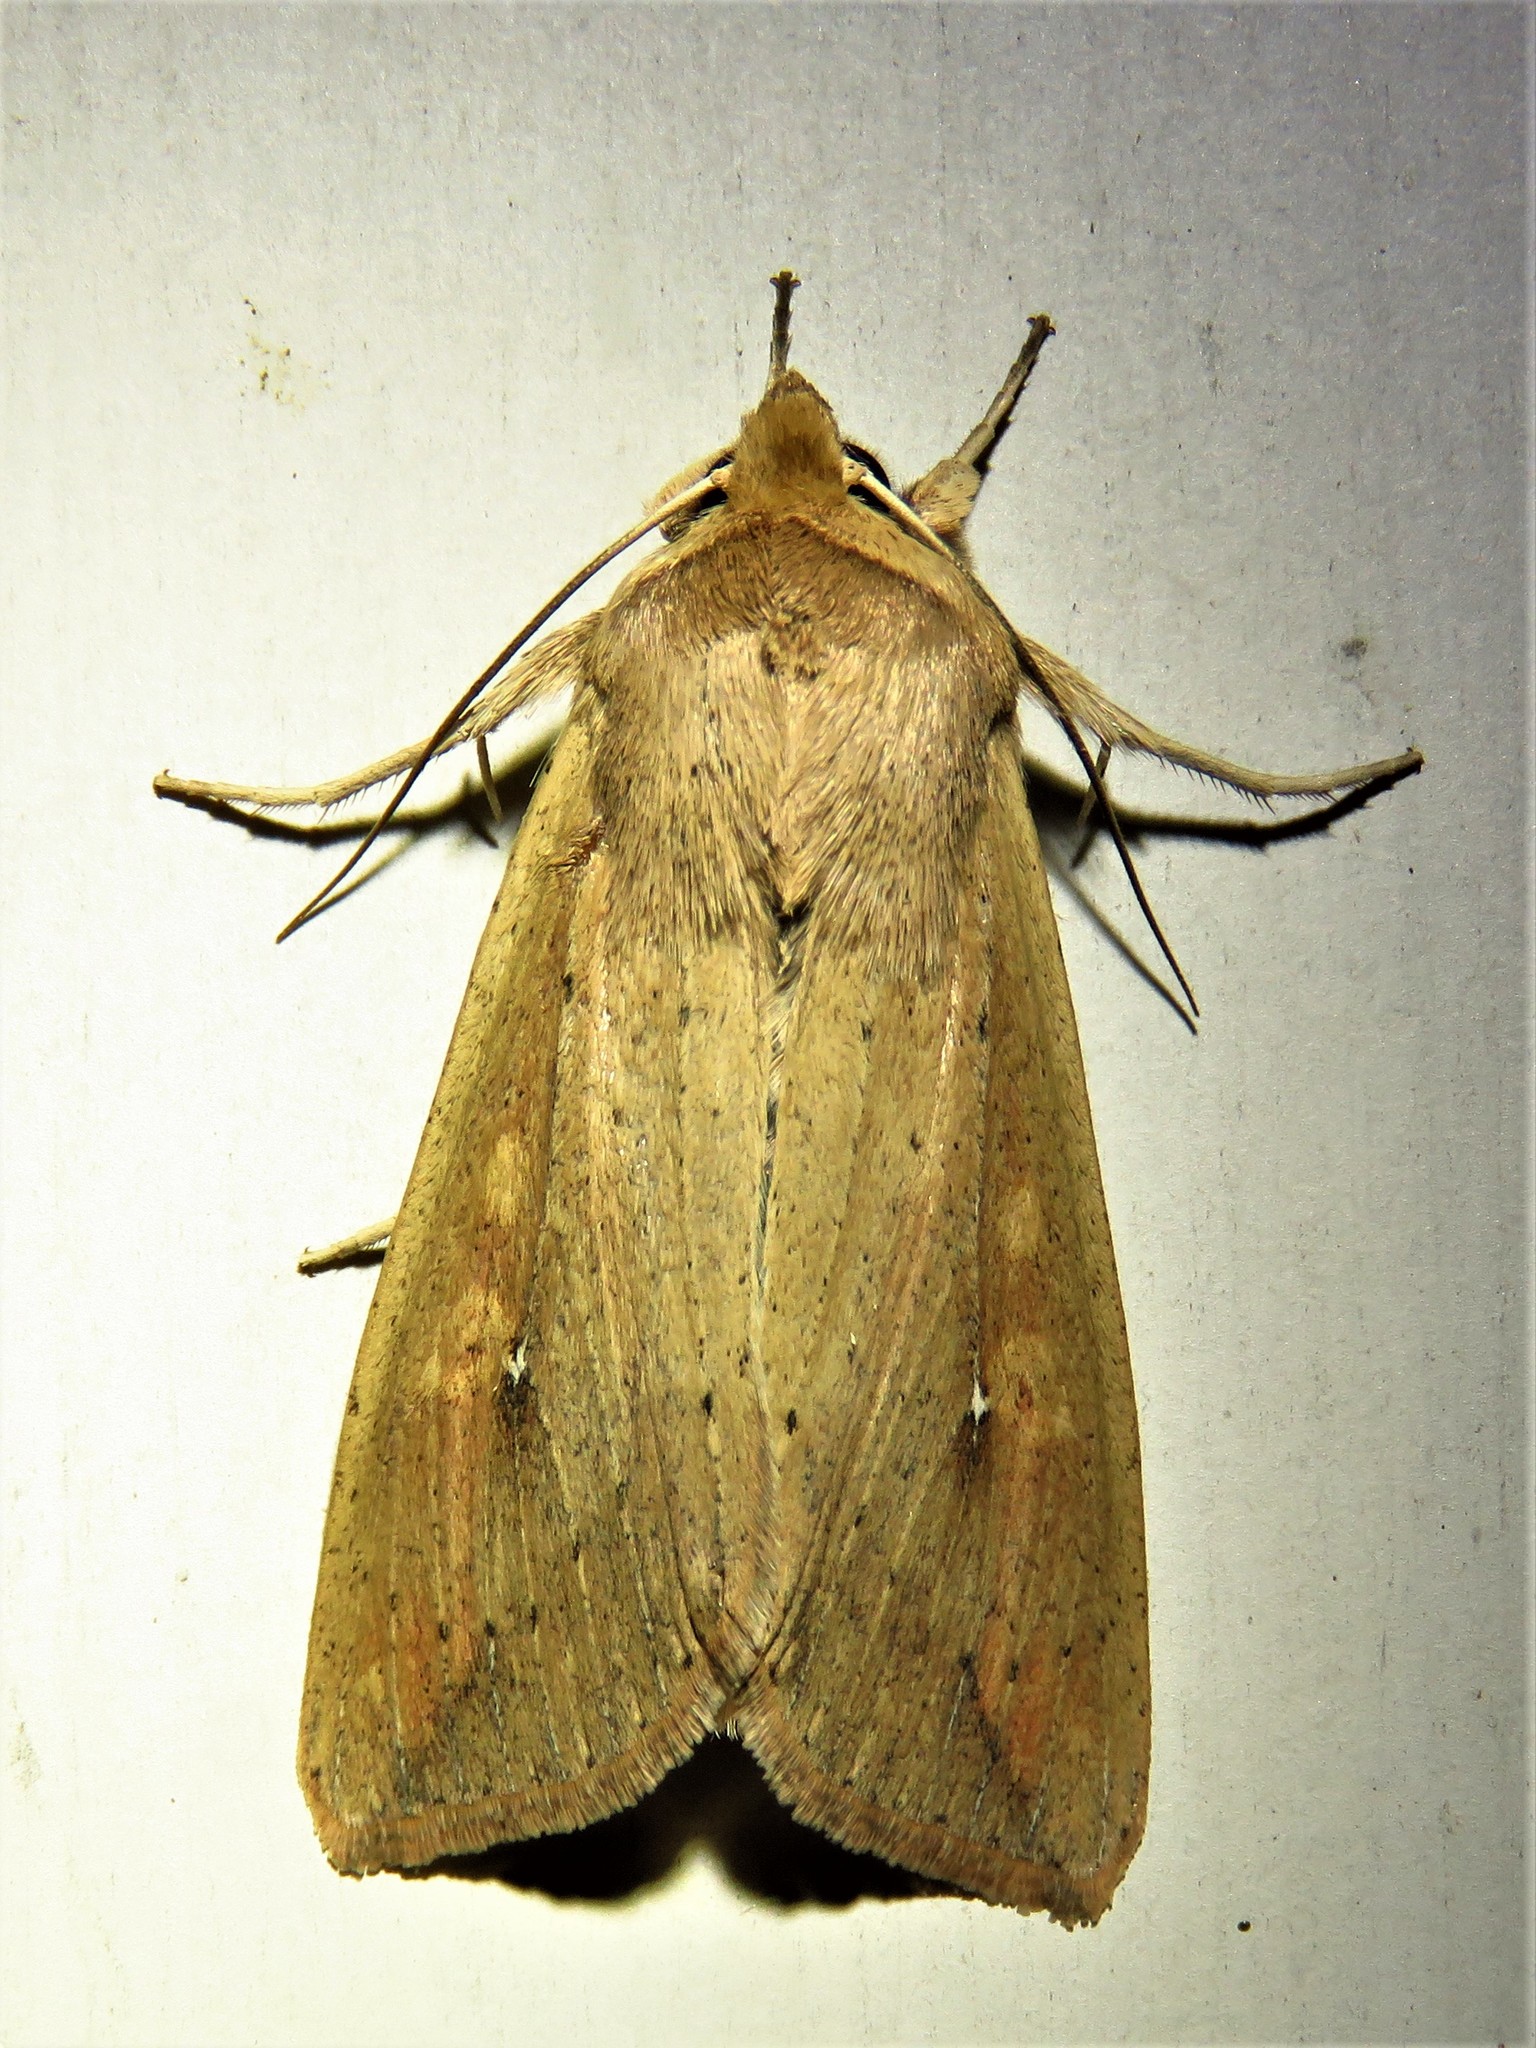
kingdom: Animalia
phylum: Arthropoda
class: Insecta
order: Lepidoptera
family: Noctuidae
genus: Mythimna
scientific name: Mythimna unipuncta
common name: White-speck
